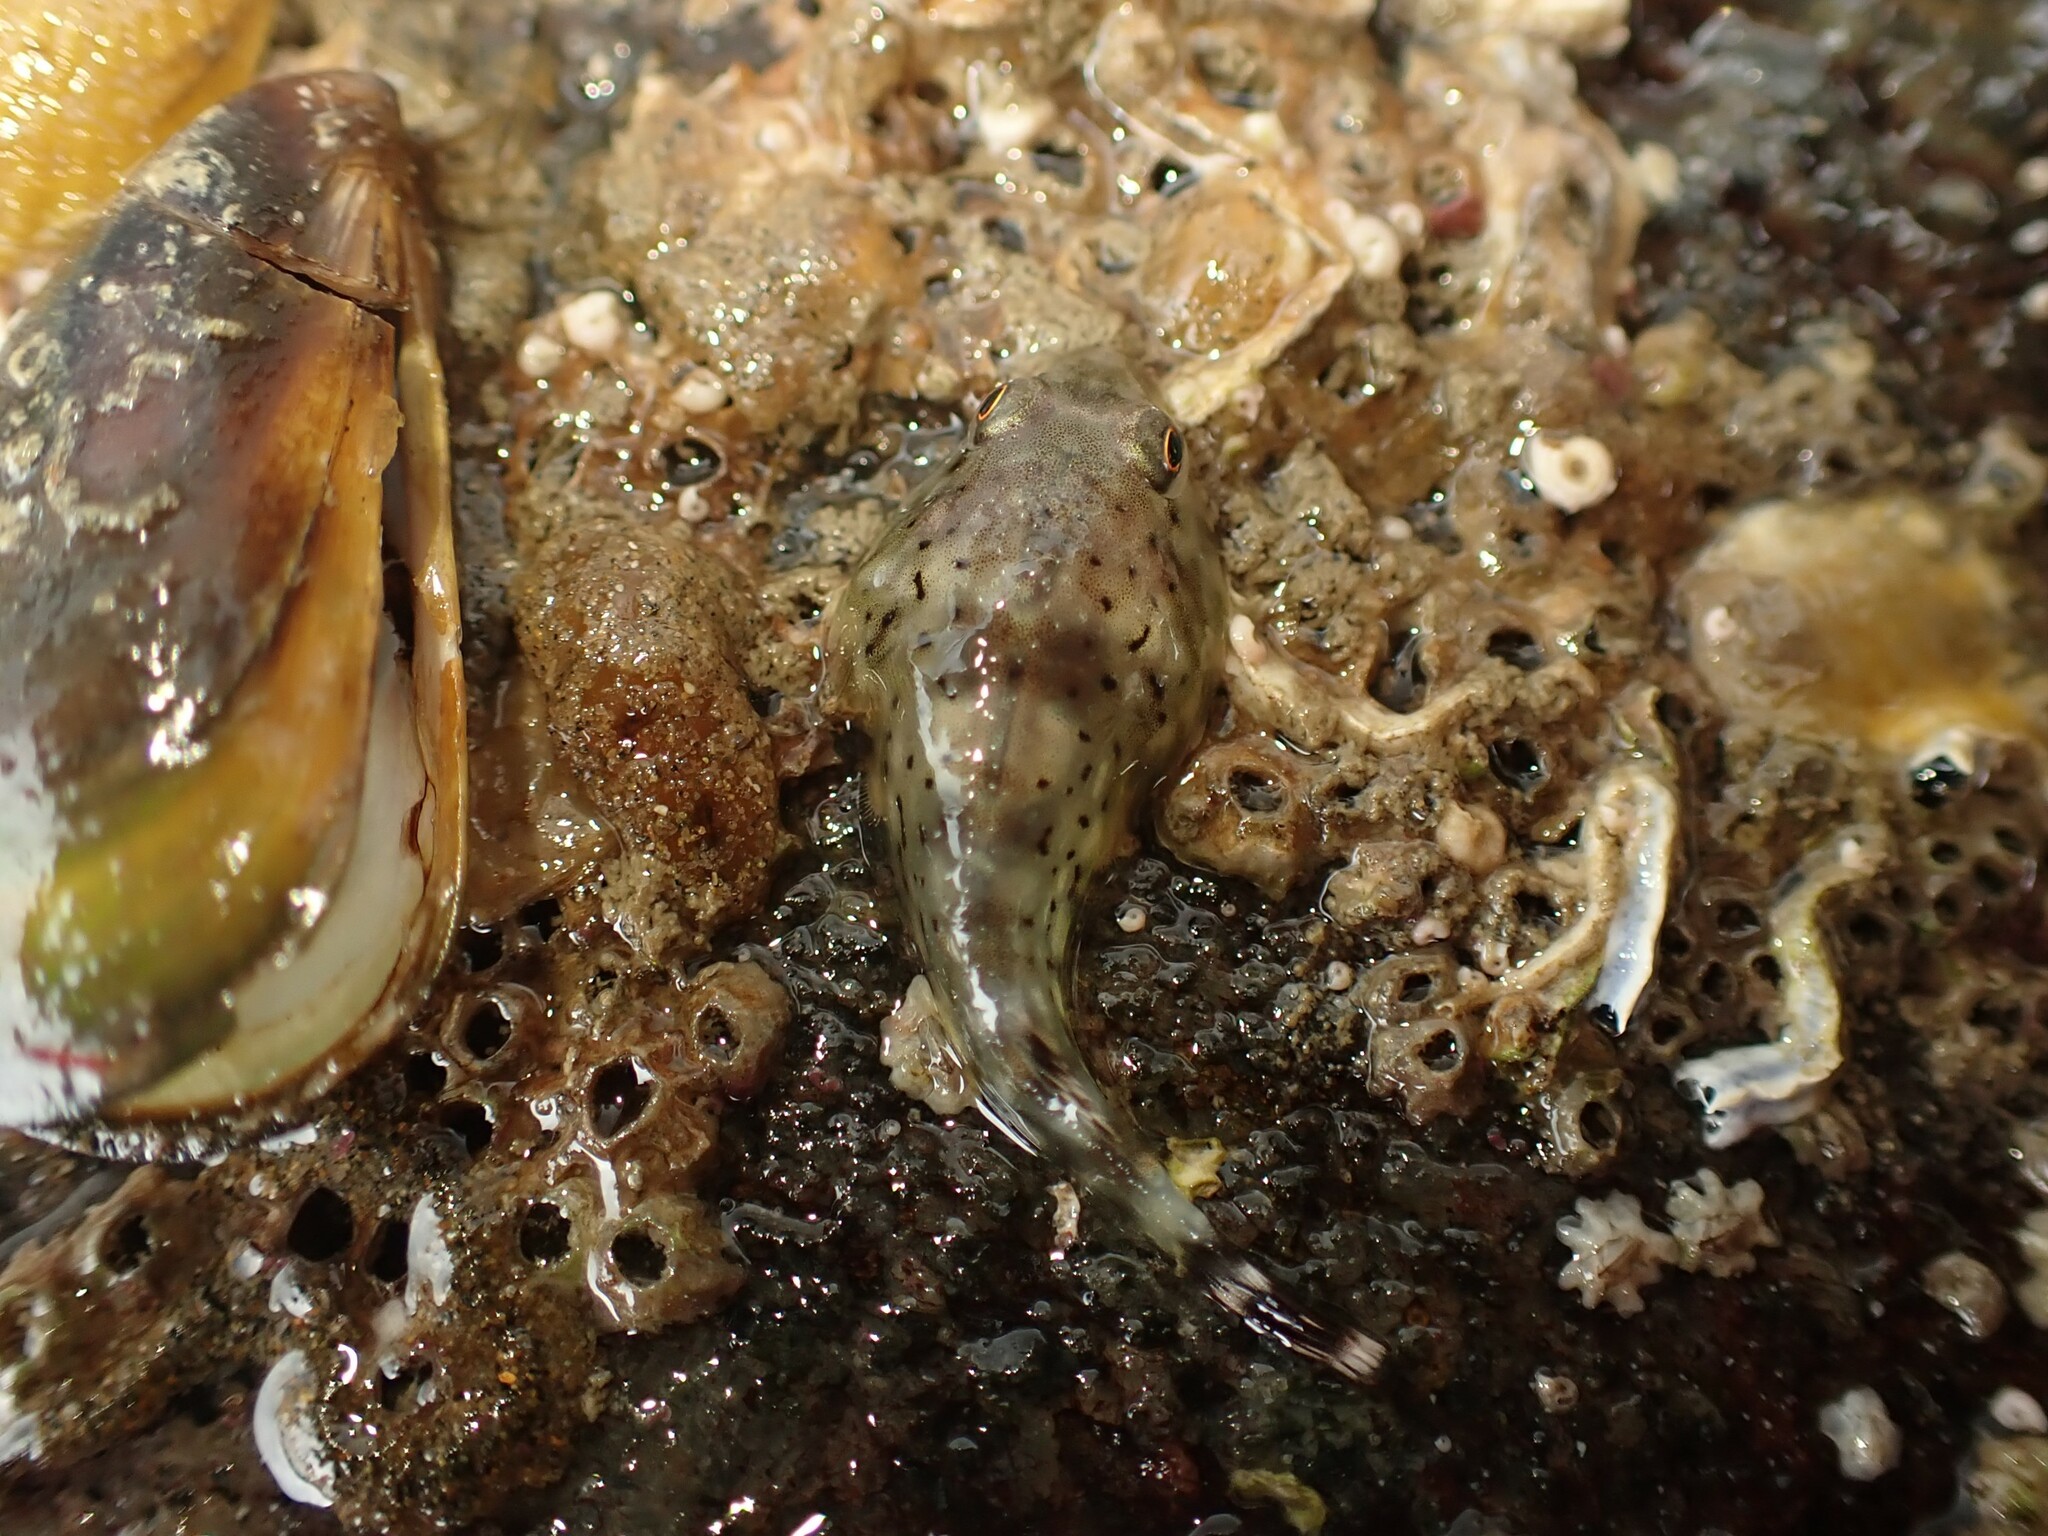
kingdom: Animalia
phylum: Chordata
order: Gobiesociformes
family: Gobiesocidae
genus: Diplocrepis
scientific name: Diplocrepis puniceus
